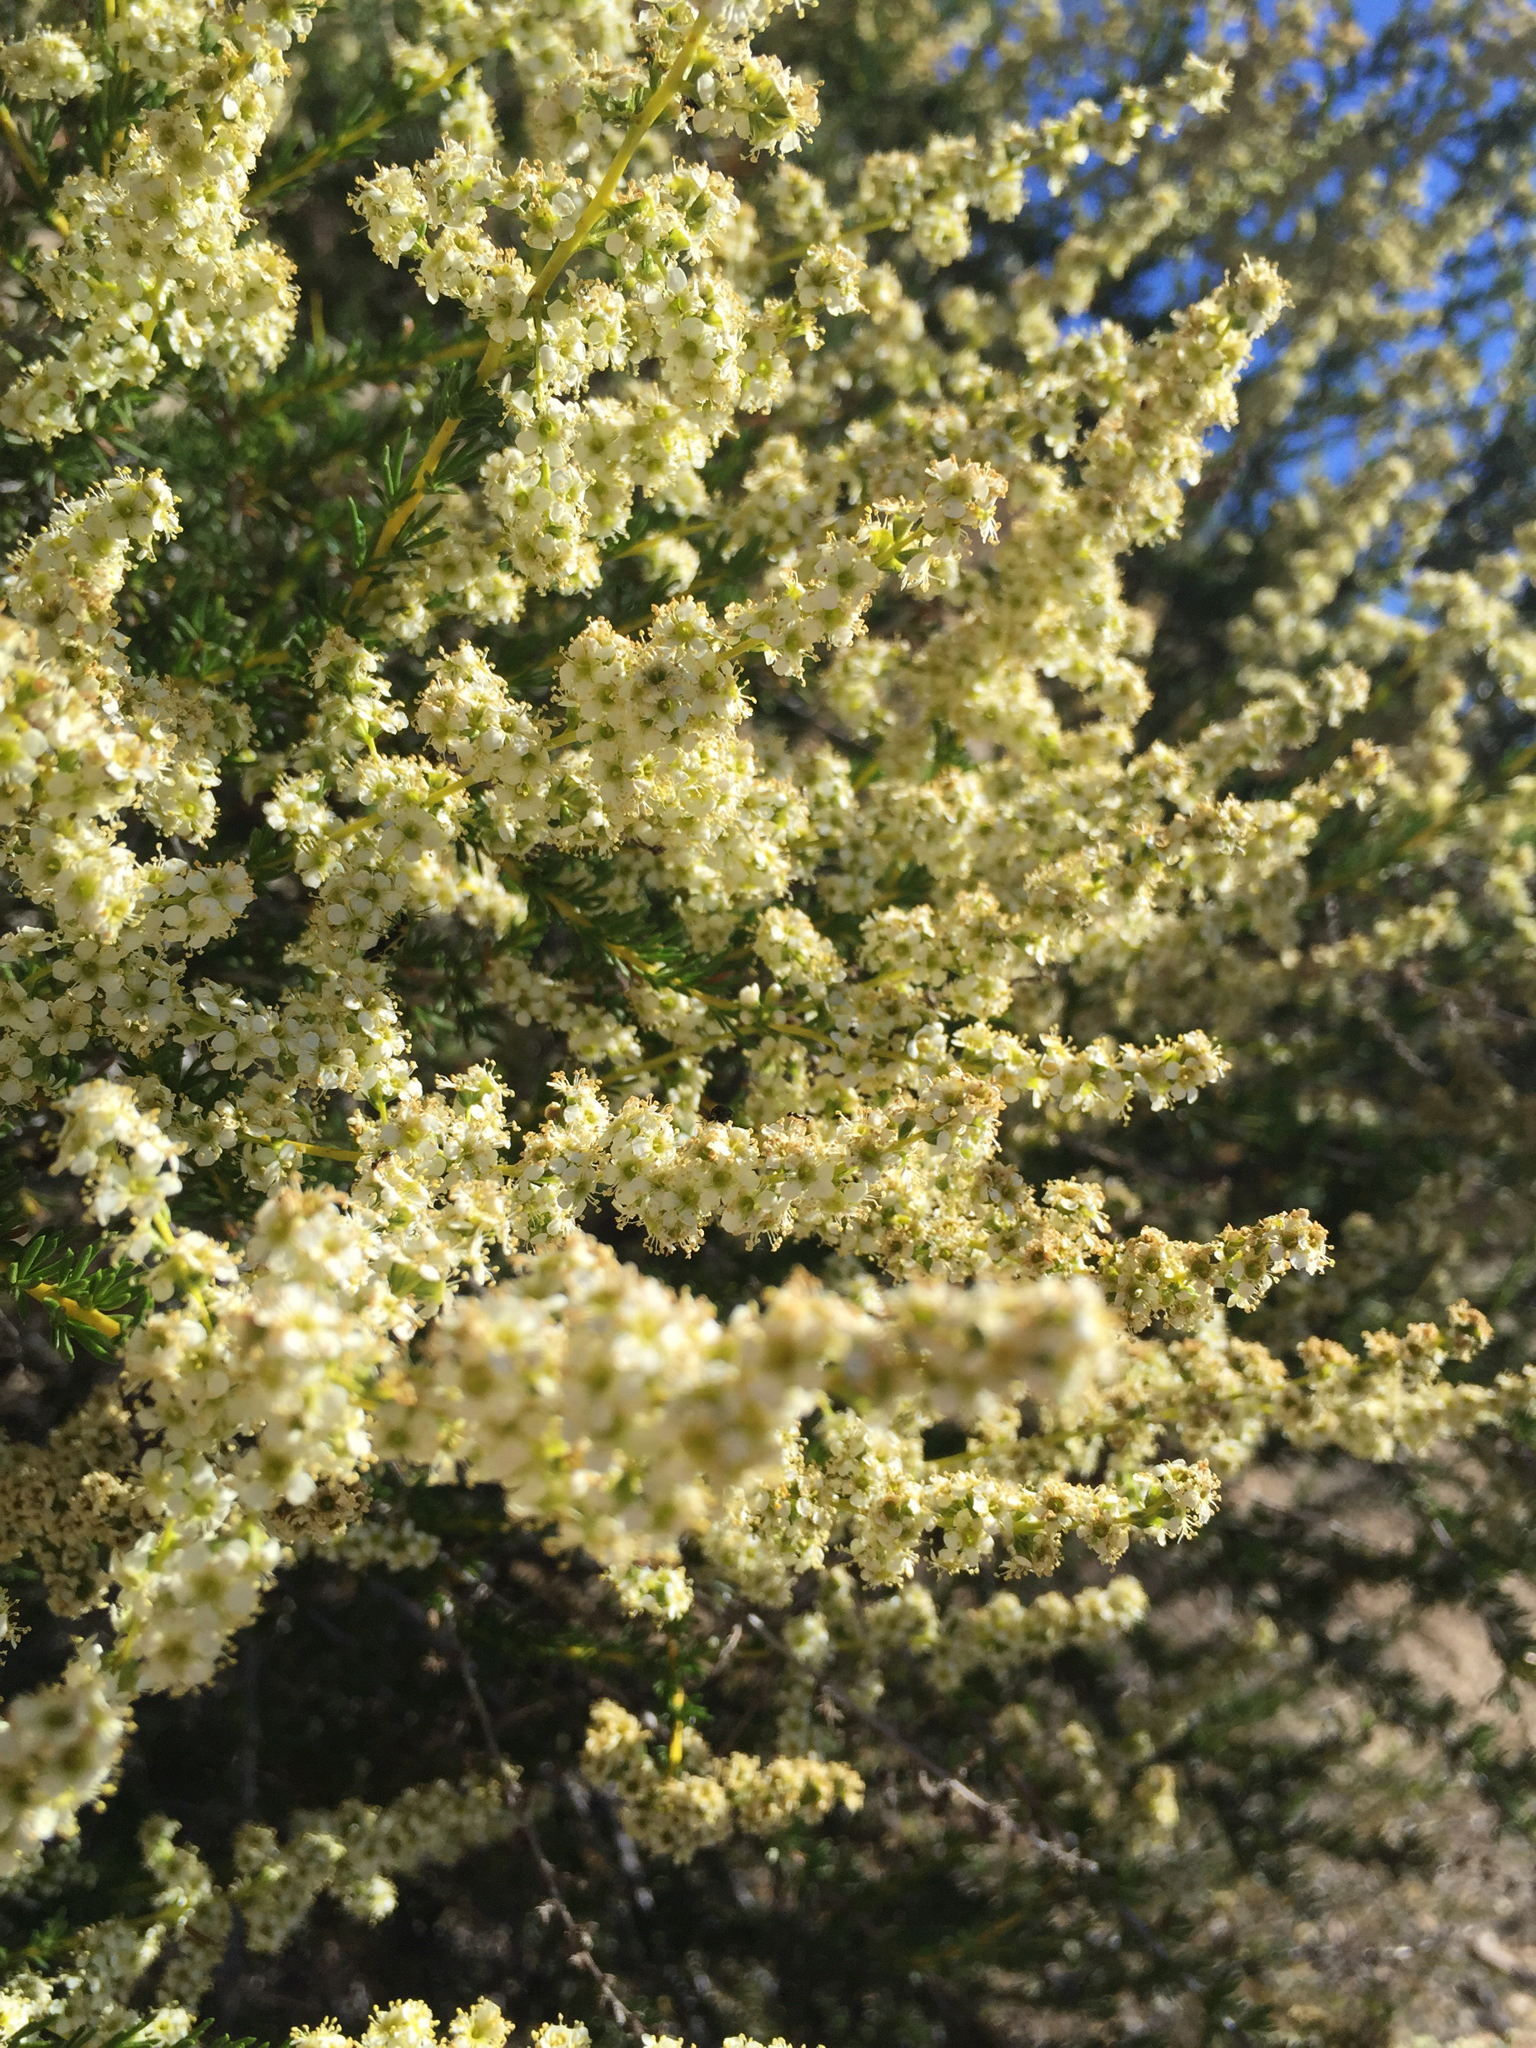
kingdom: Plantae
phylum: Tracheophyta
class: Magnoliopsida
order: Rosales
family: Rosaceae
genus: Adenostoma
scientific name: Adenostoma fasciculatum
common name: Chamise
